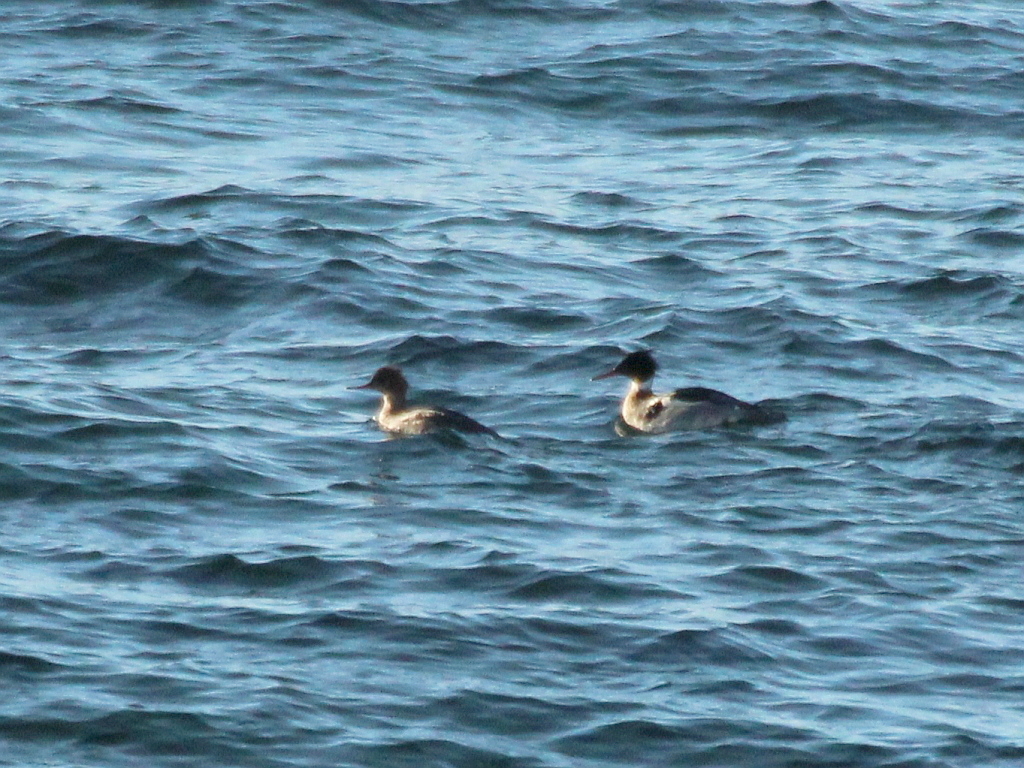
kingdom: Animalia
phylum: Chordata
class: Aves
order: Anseriformes
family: Anatidae
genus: Mergus
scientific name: Mergus serrator
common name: Red-breasted merganser
